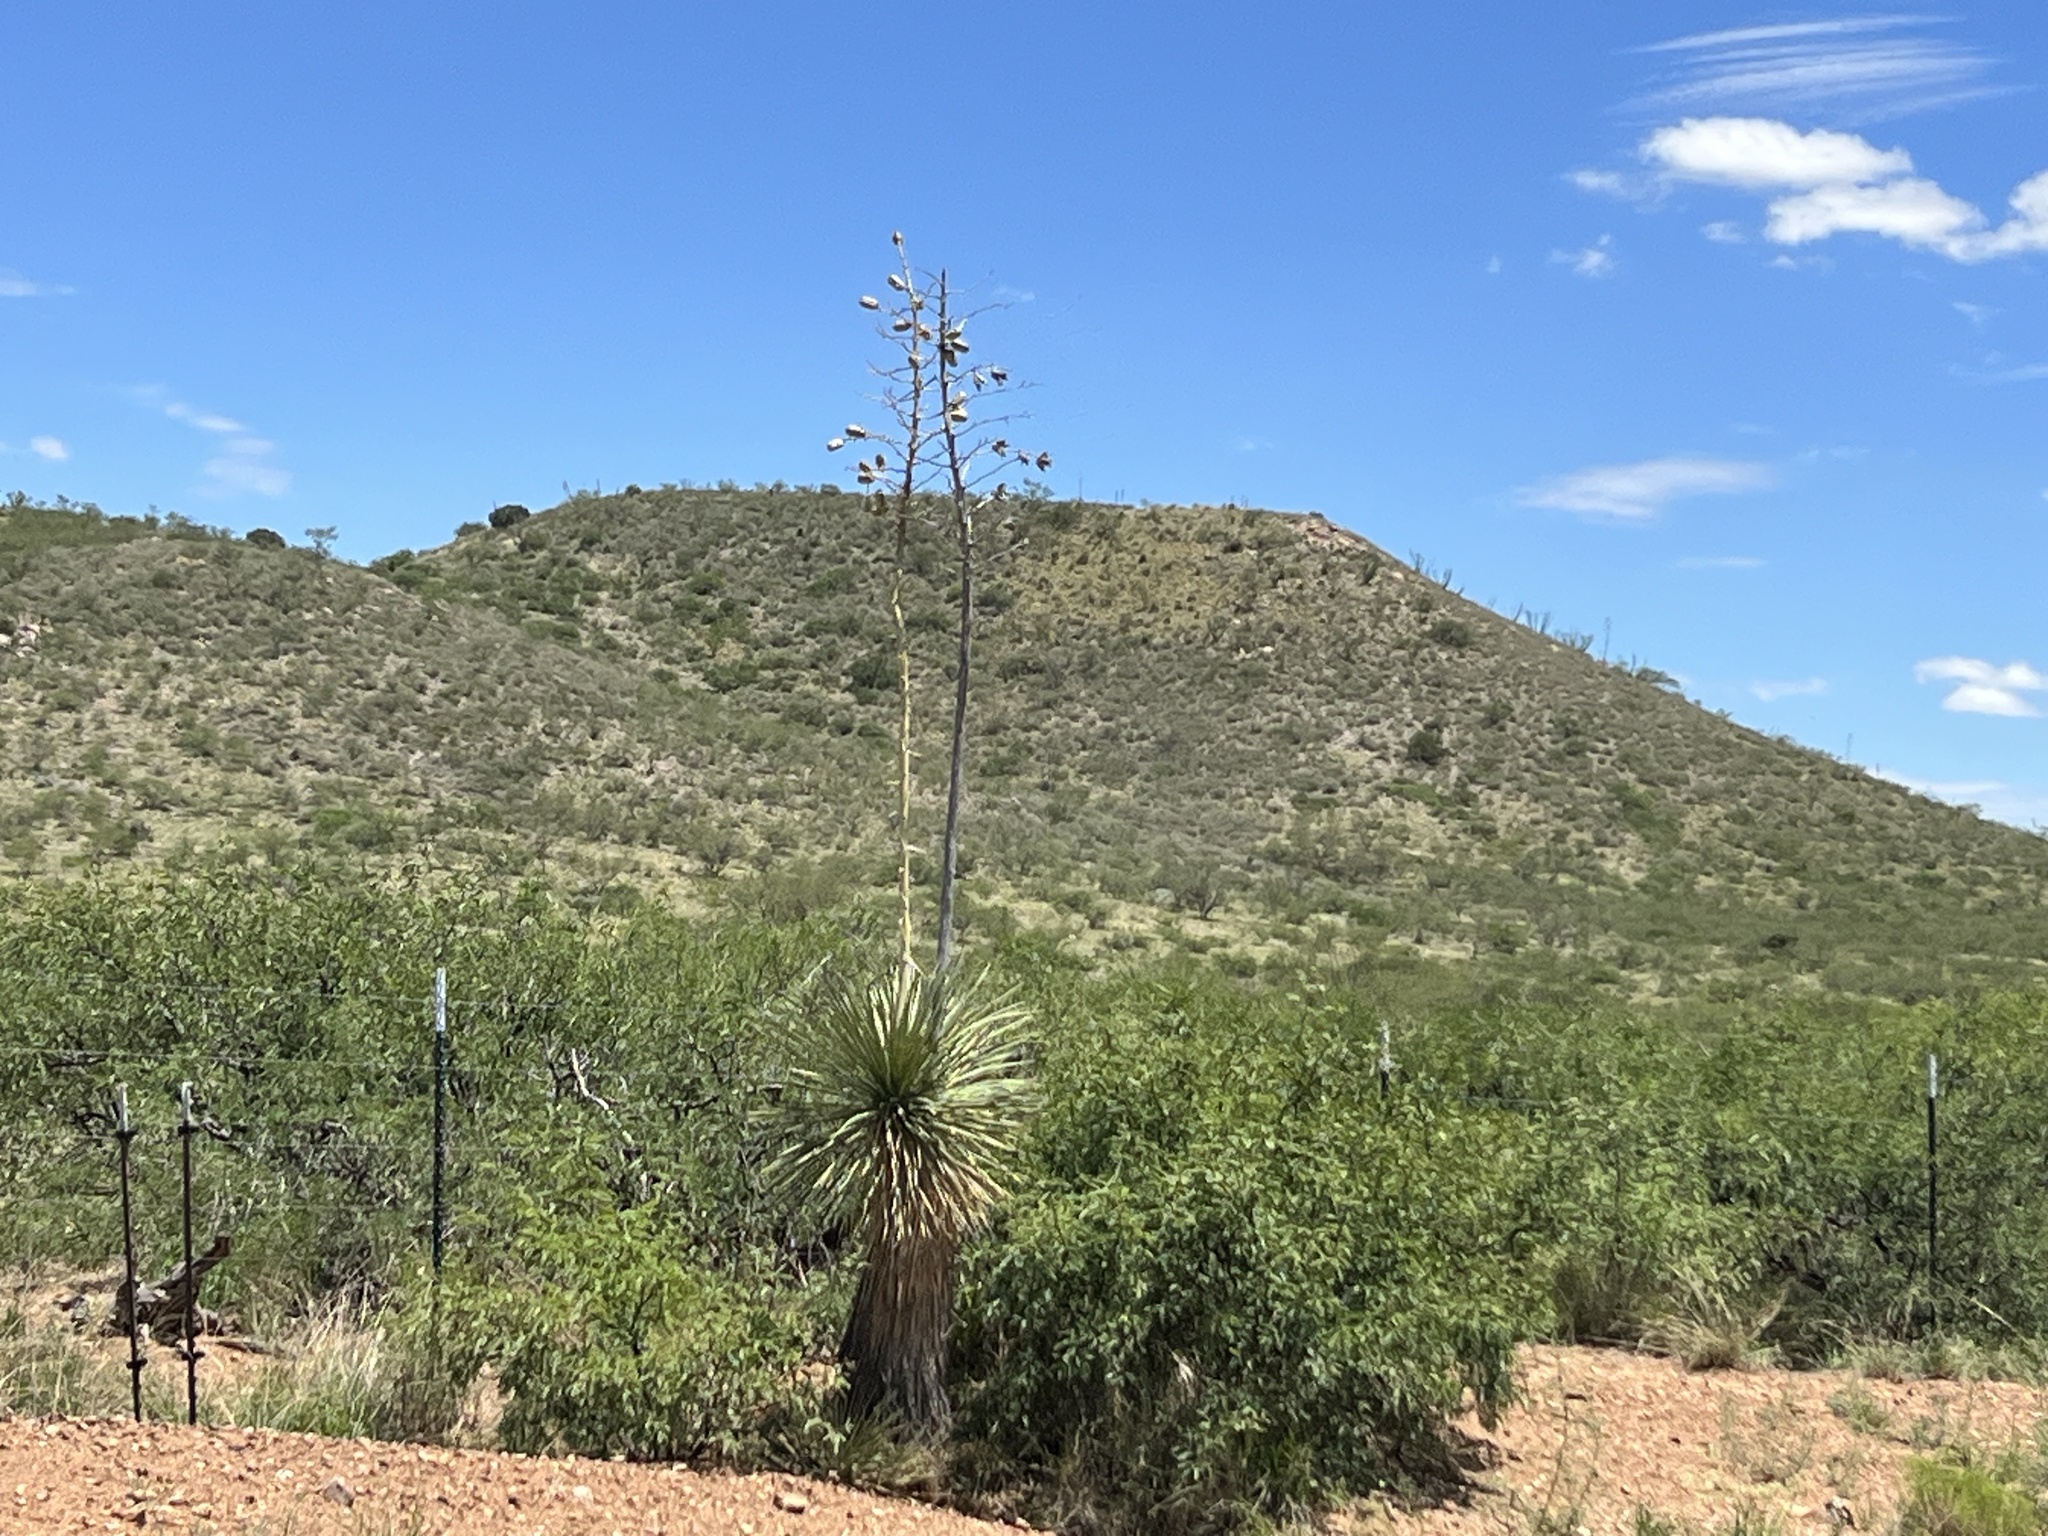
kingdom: Plantae
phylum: Tracheophyta
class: Liliopsida
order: Asparagales
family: Asparagaceae
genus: Yucca
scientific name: Yucca elata
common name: Palmella
